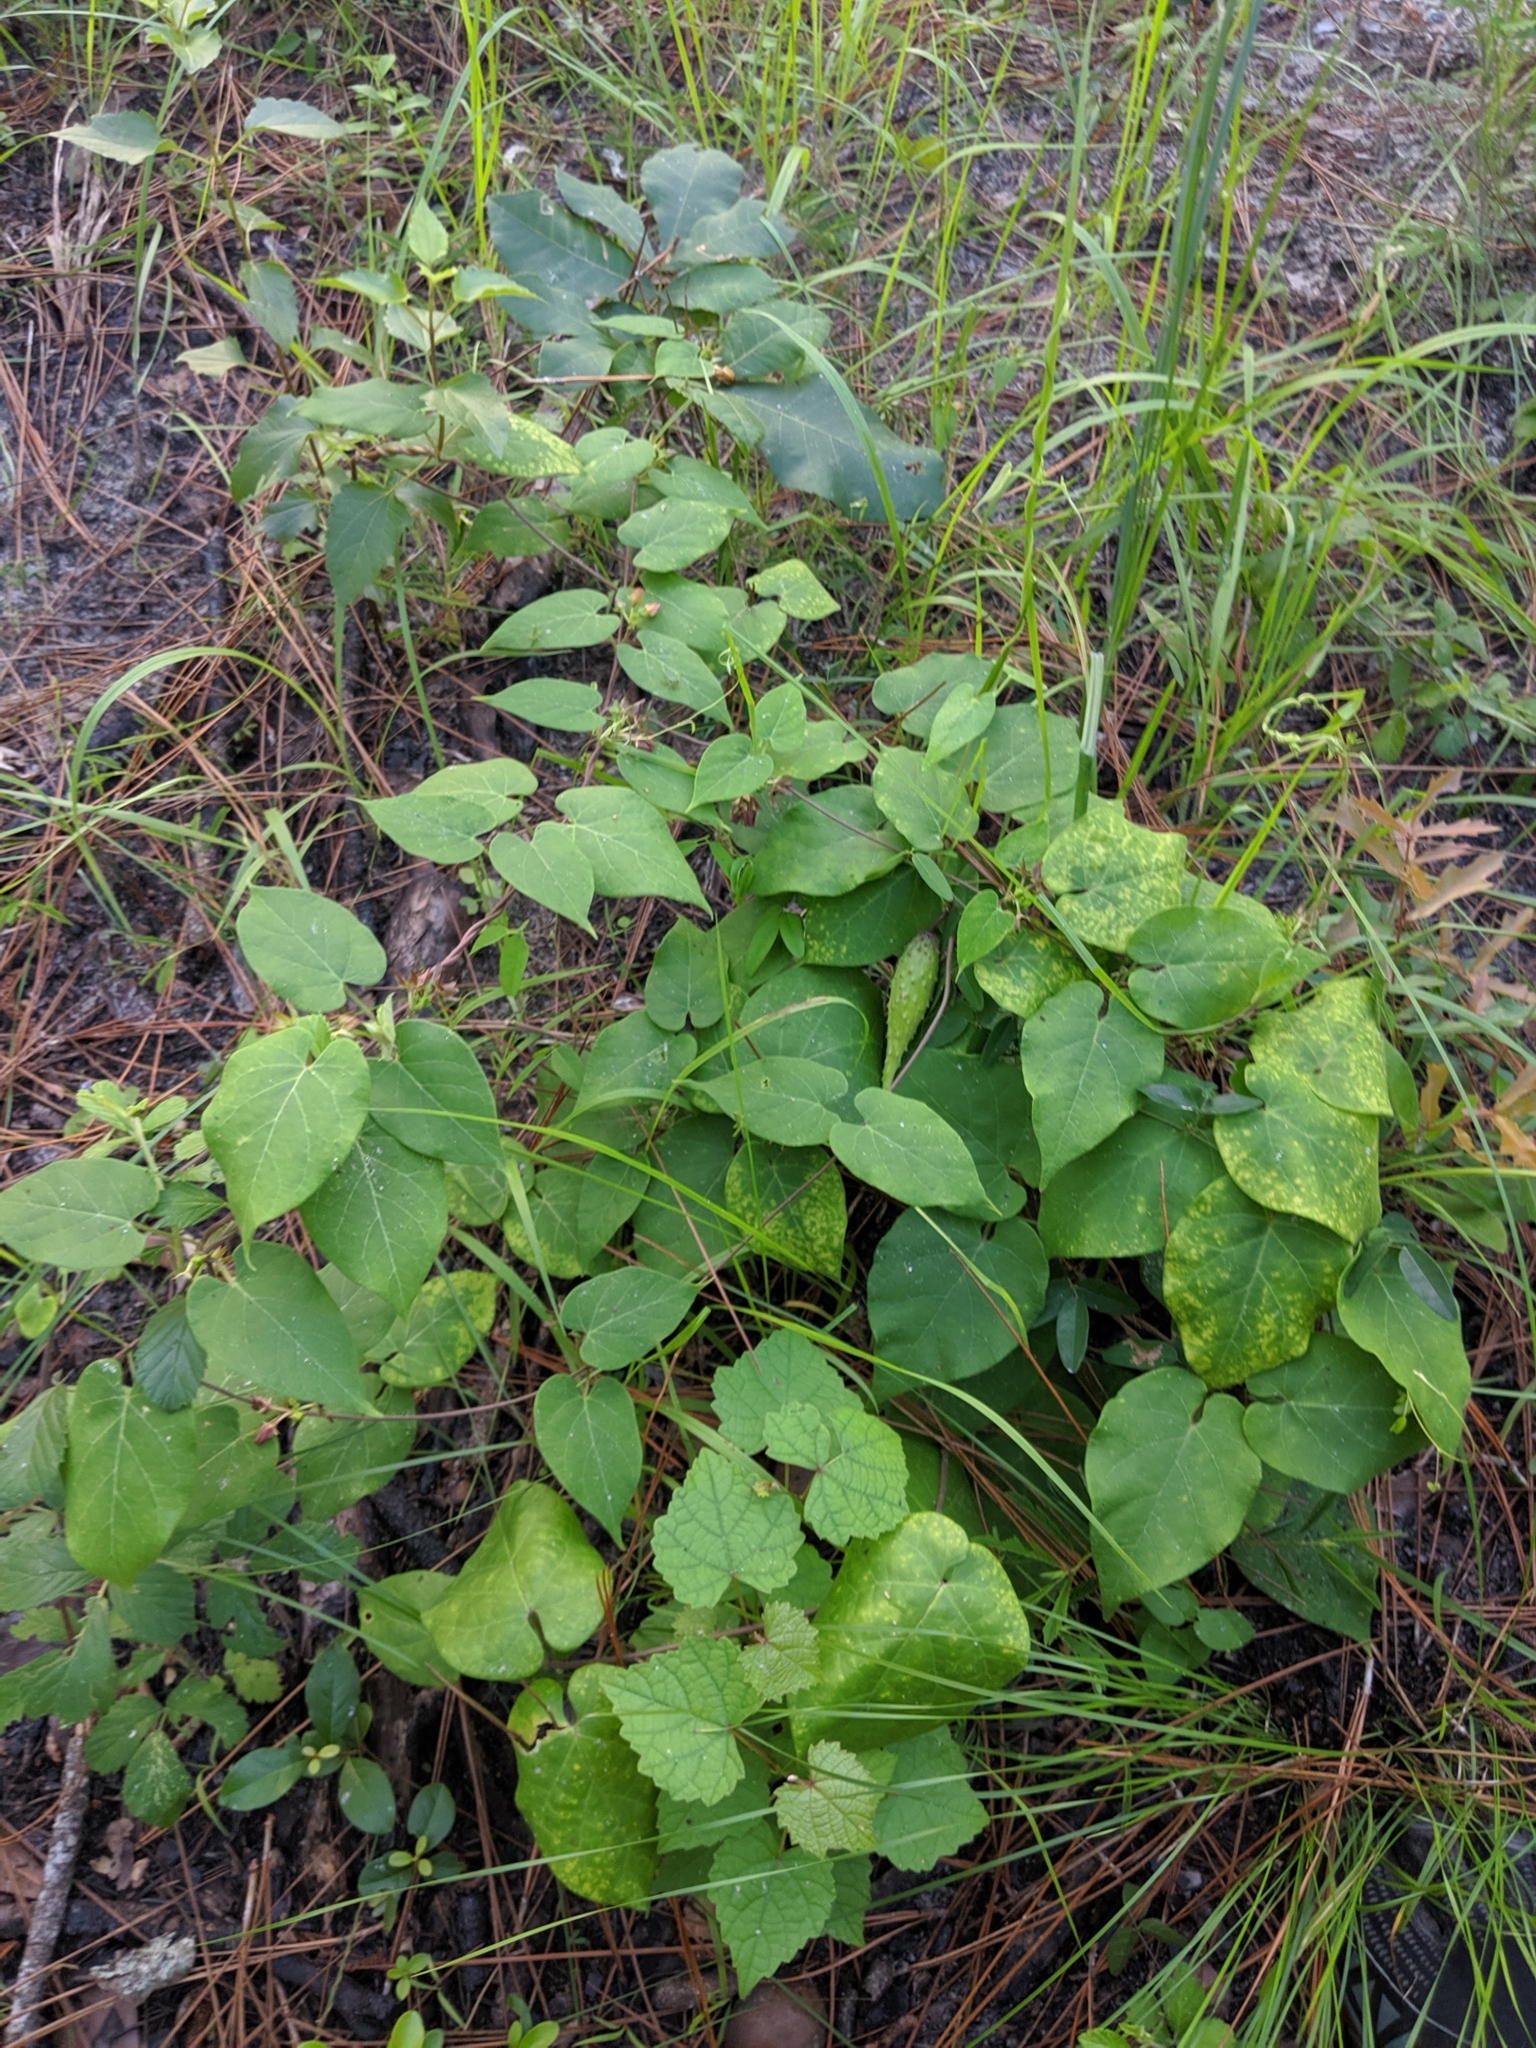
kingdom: Plantae
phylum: Tracheophyta
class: Magnoliopsida
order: Gentianales
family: Apocynaceae
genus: Matelea
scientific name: Matelea floridana
